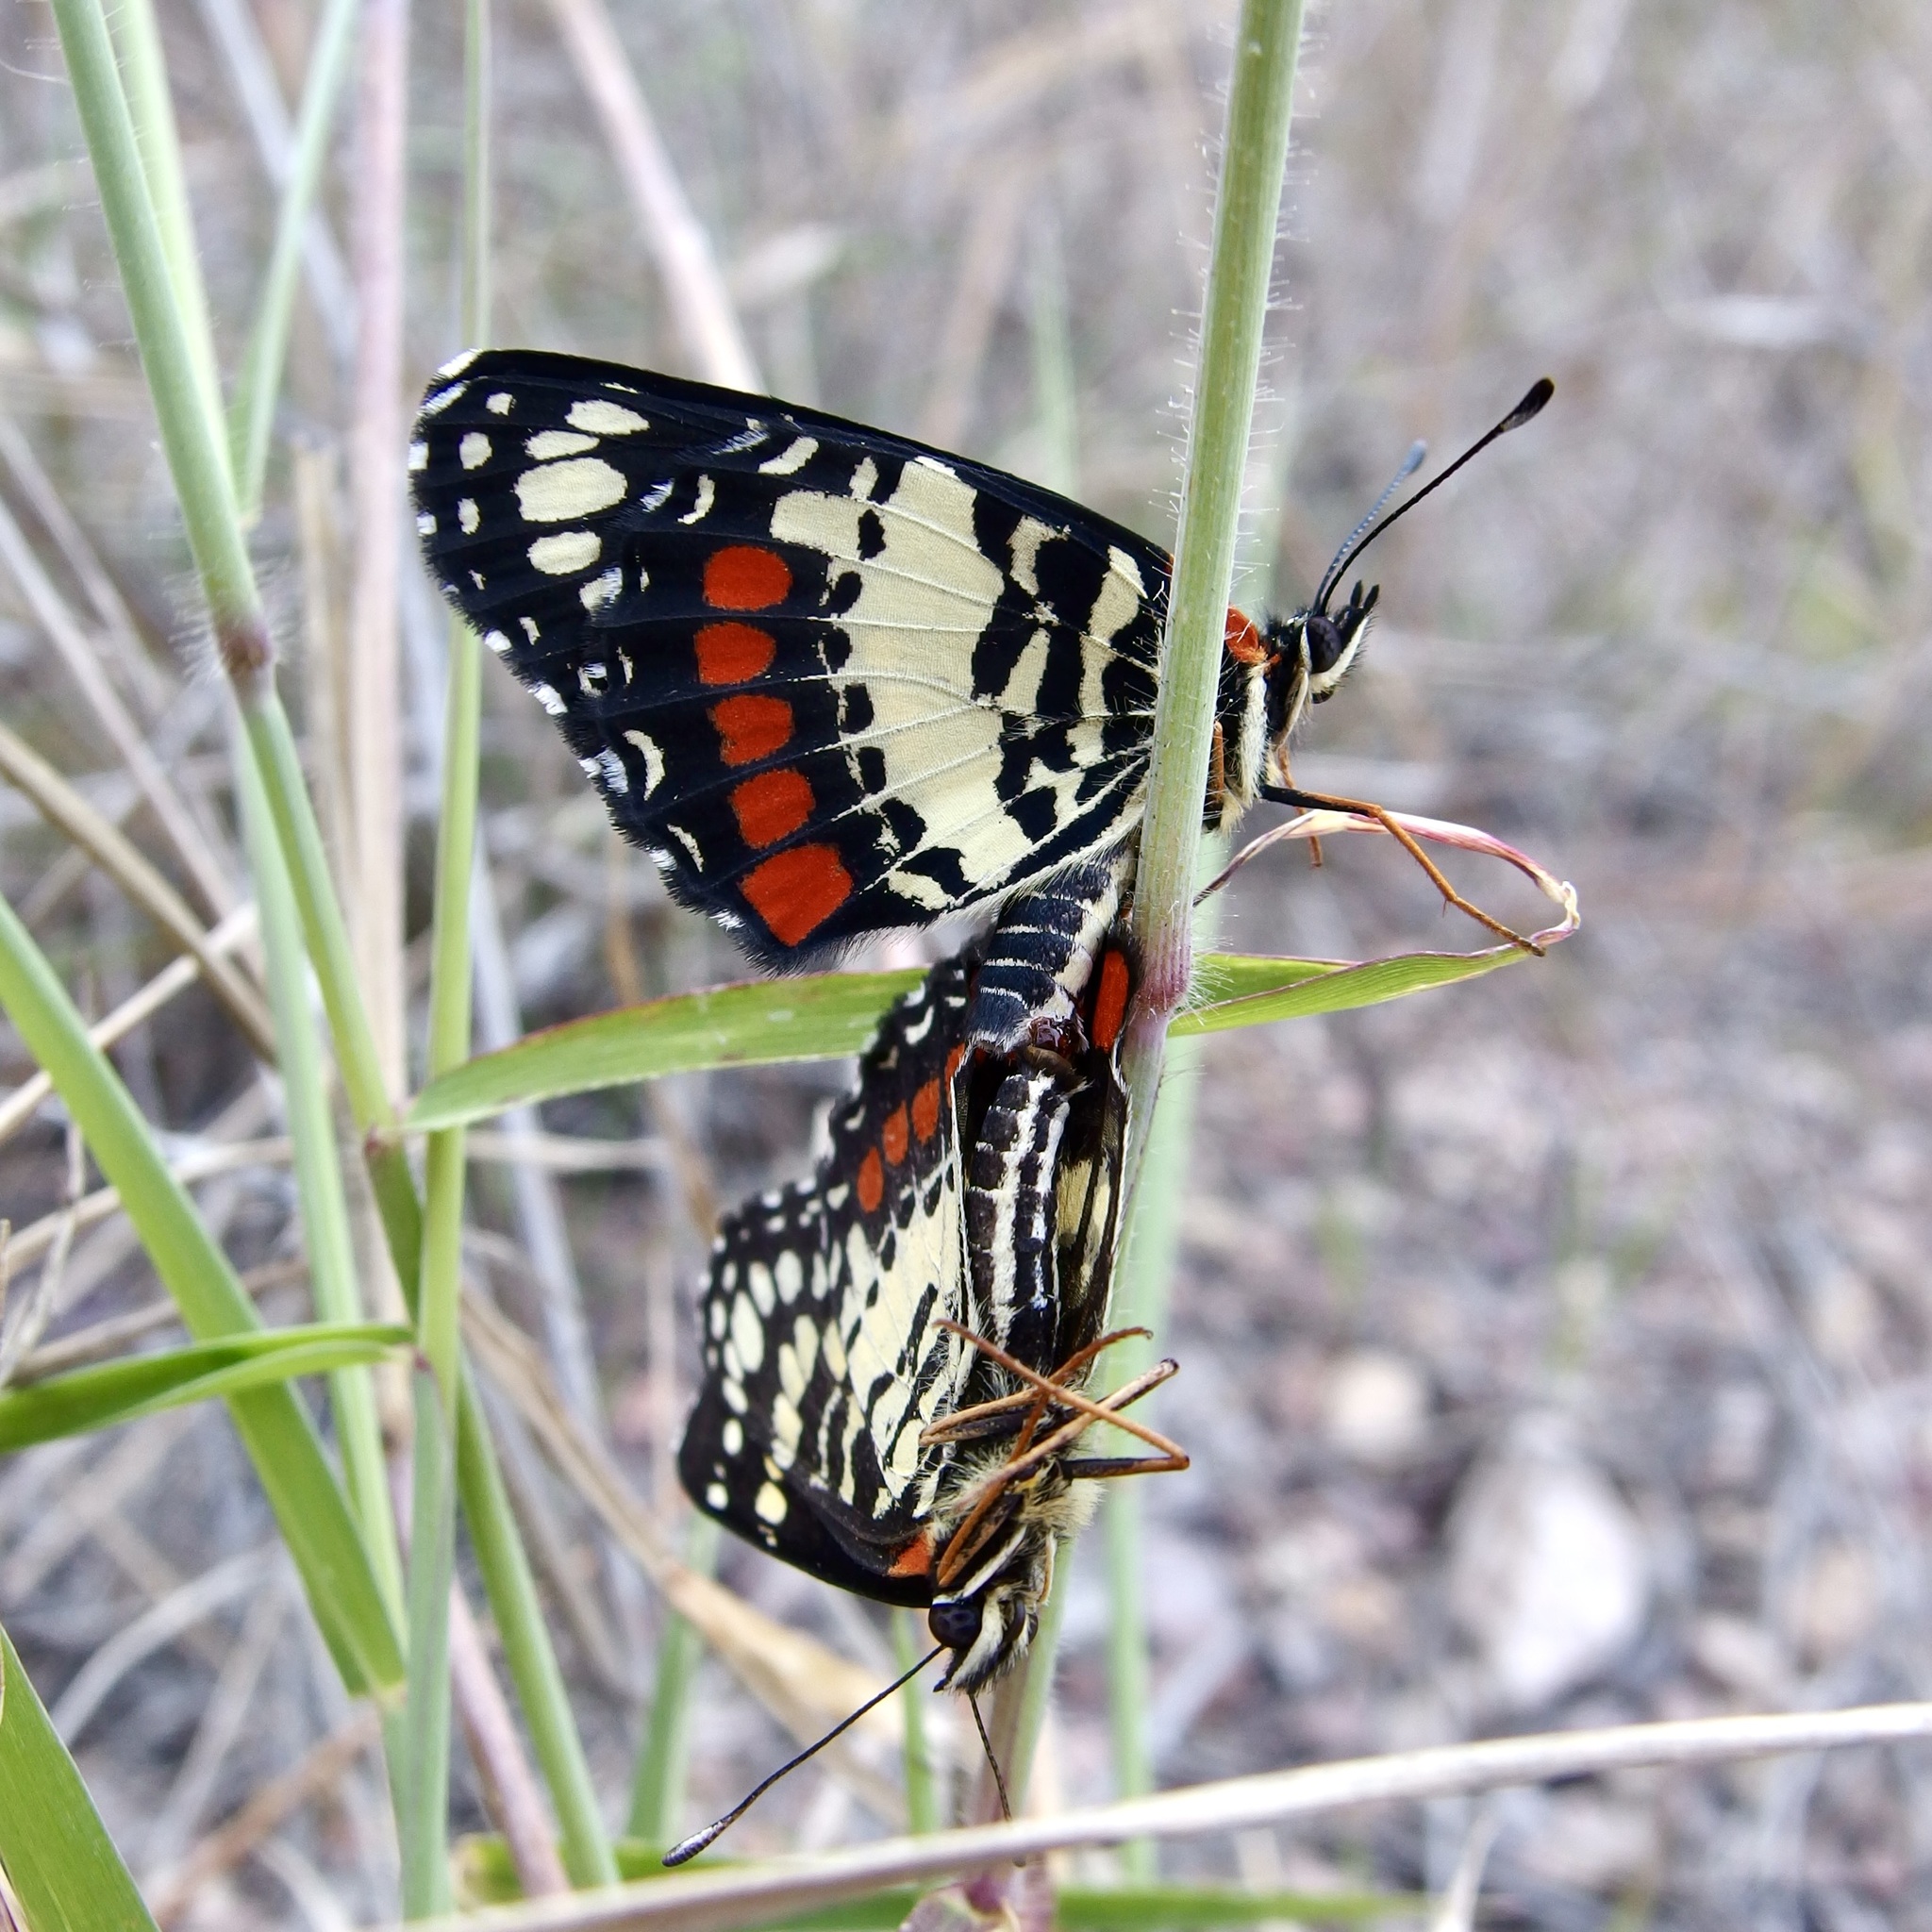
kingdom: Animalia
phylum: Arthropoda
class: Insecta
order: Lepidoptera
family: Nymphalidae
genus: Chlosyne
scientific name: Chlosyne eumeda
